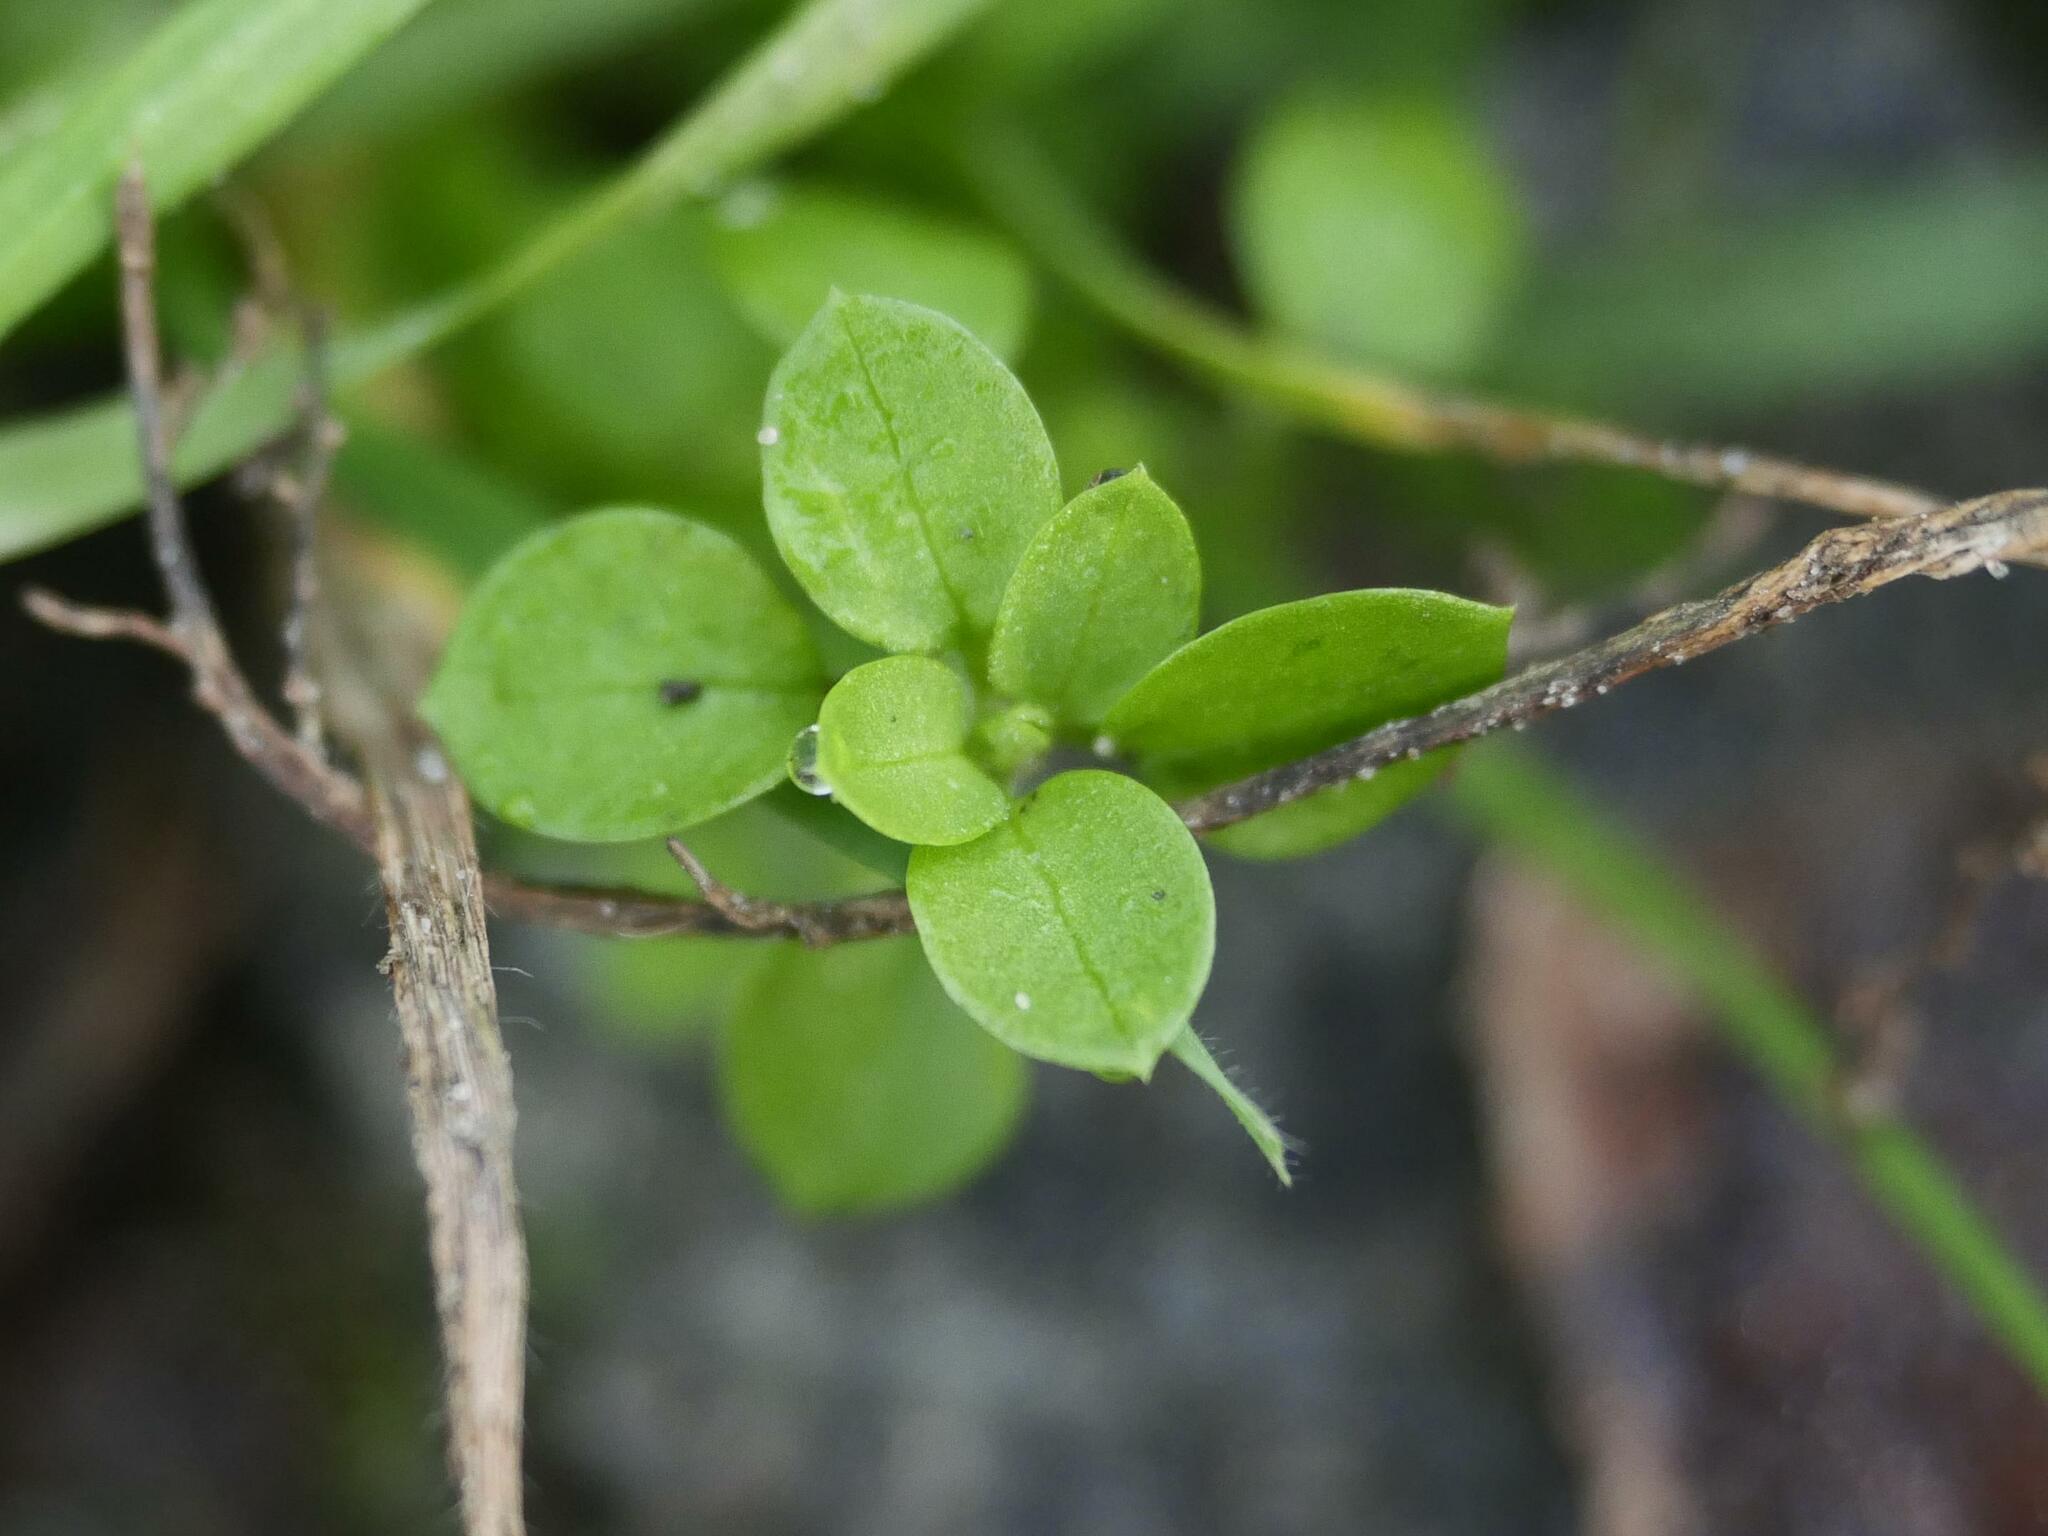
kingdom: Plantae
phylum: Tracheophyta
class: Magnoliopsida
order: Caryophyllales
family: Caryophyllaceae
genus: Stellaria
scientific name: Stellaria media
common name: Common chickweed
